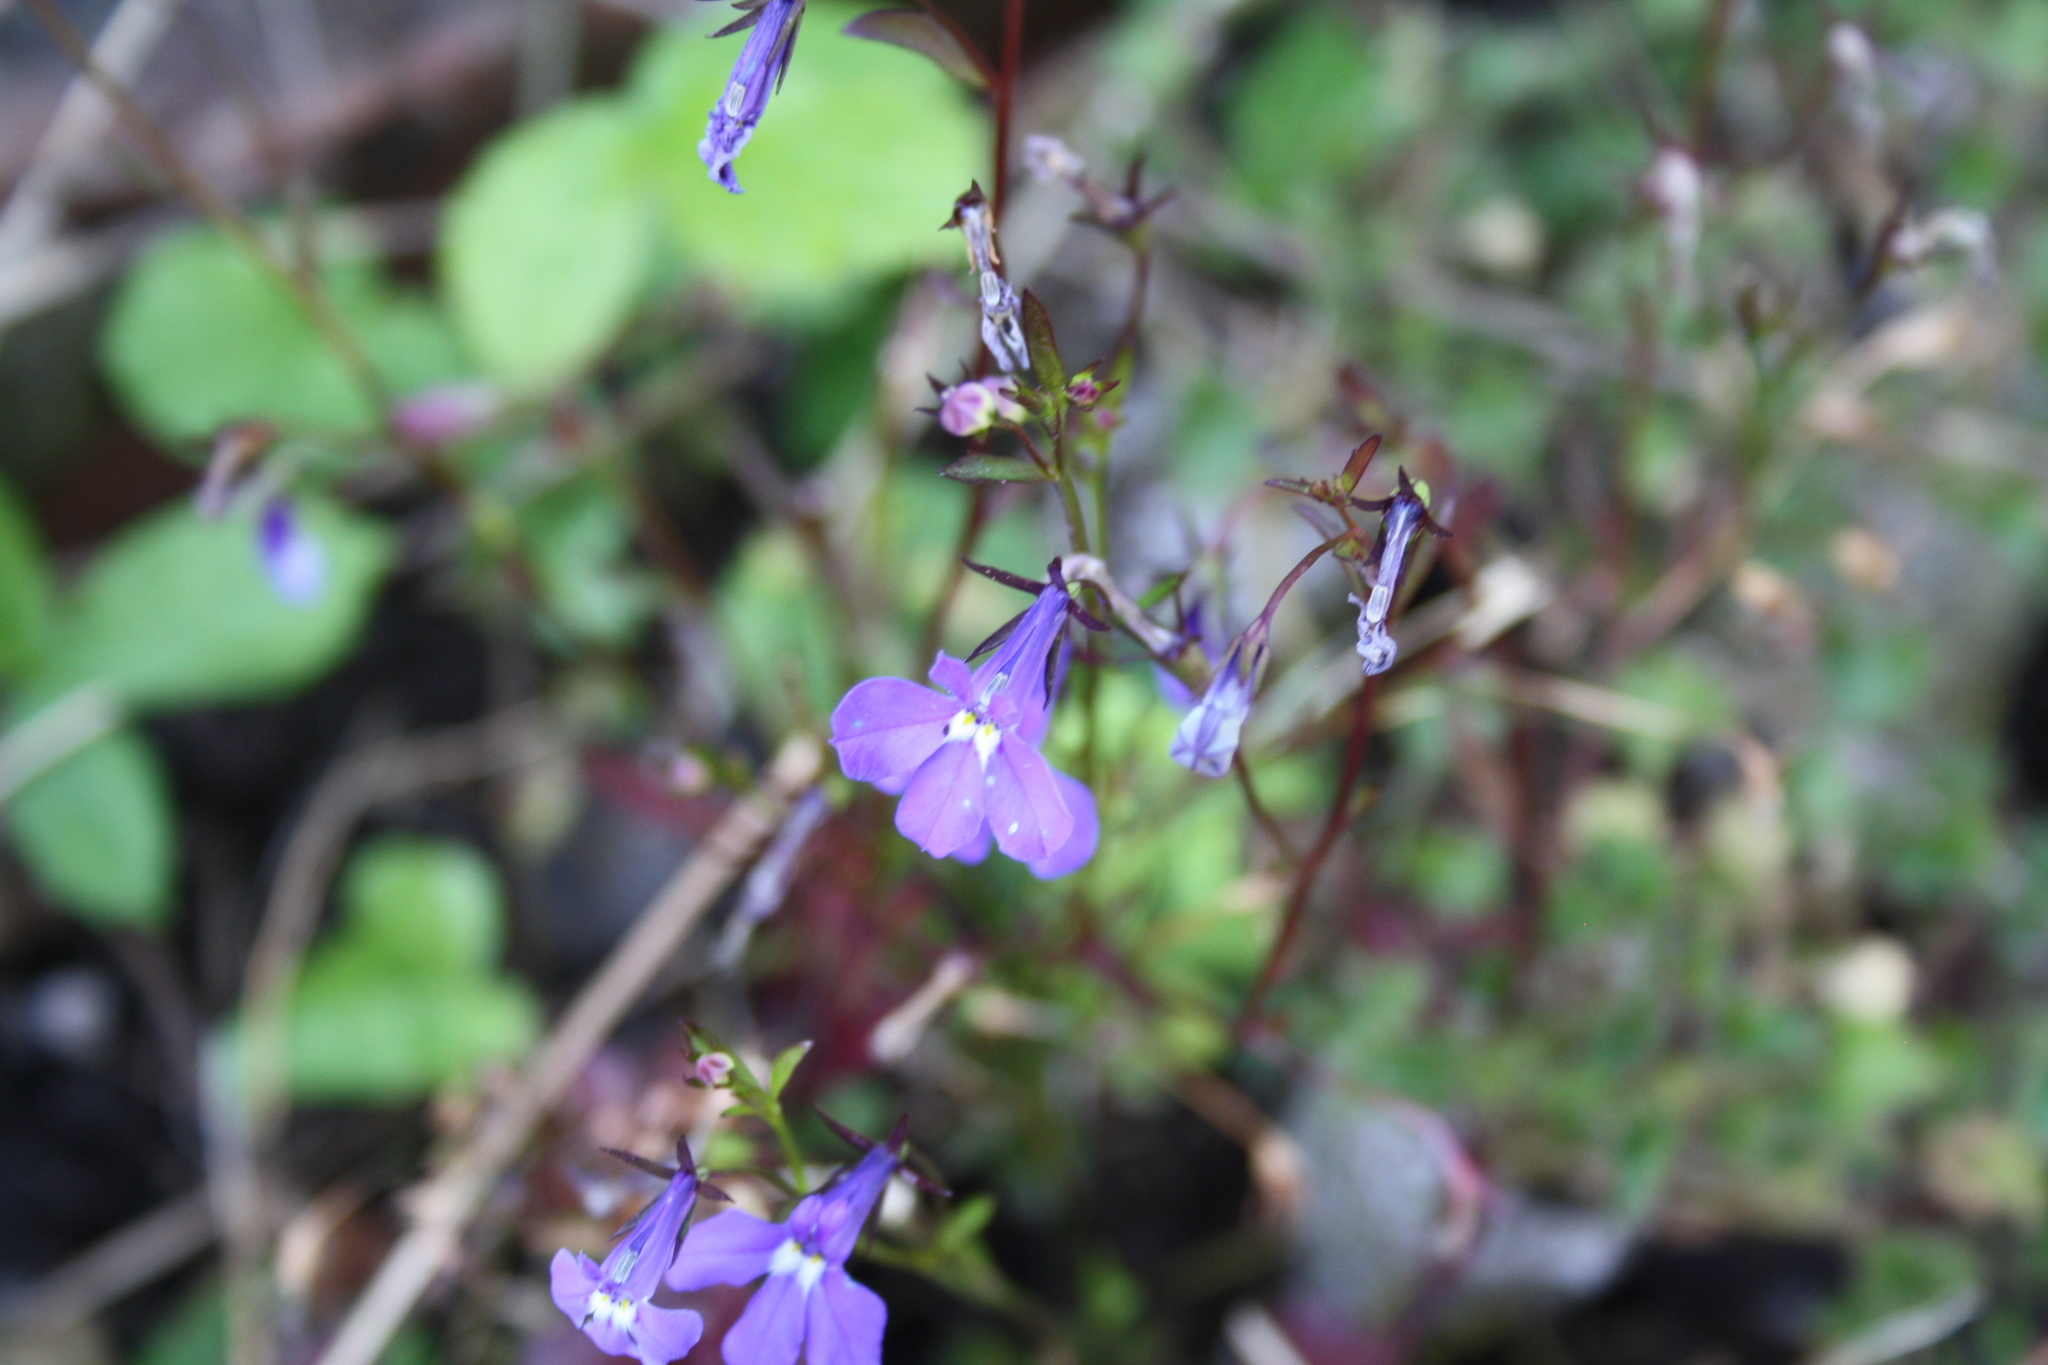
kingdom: Plantae
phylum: Tracheophyta
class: Magnoliopsida
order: Asterales
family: Campanulaceae
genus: Lobelia
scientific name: Lobelia erinus
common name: Edging lobelia
